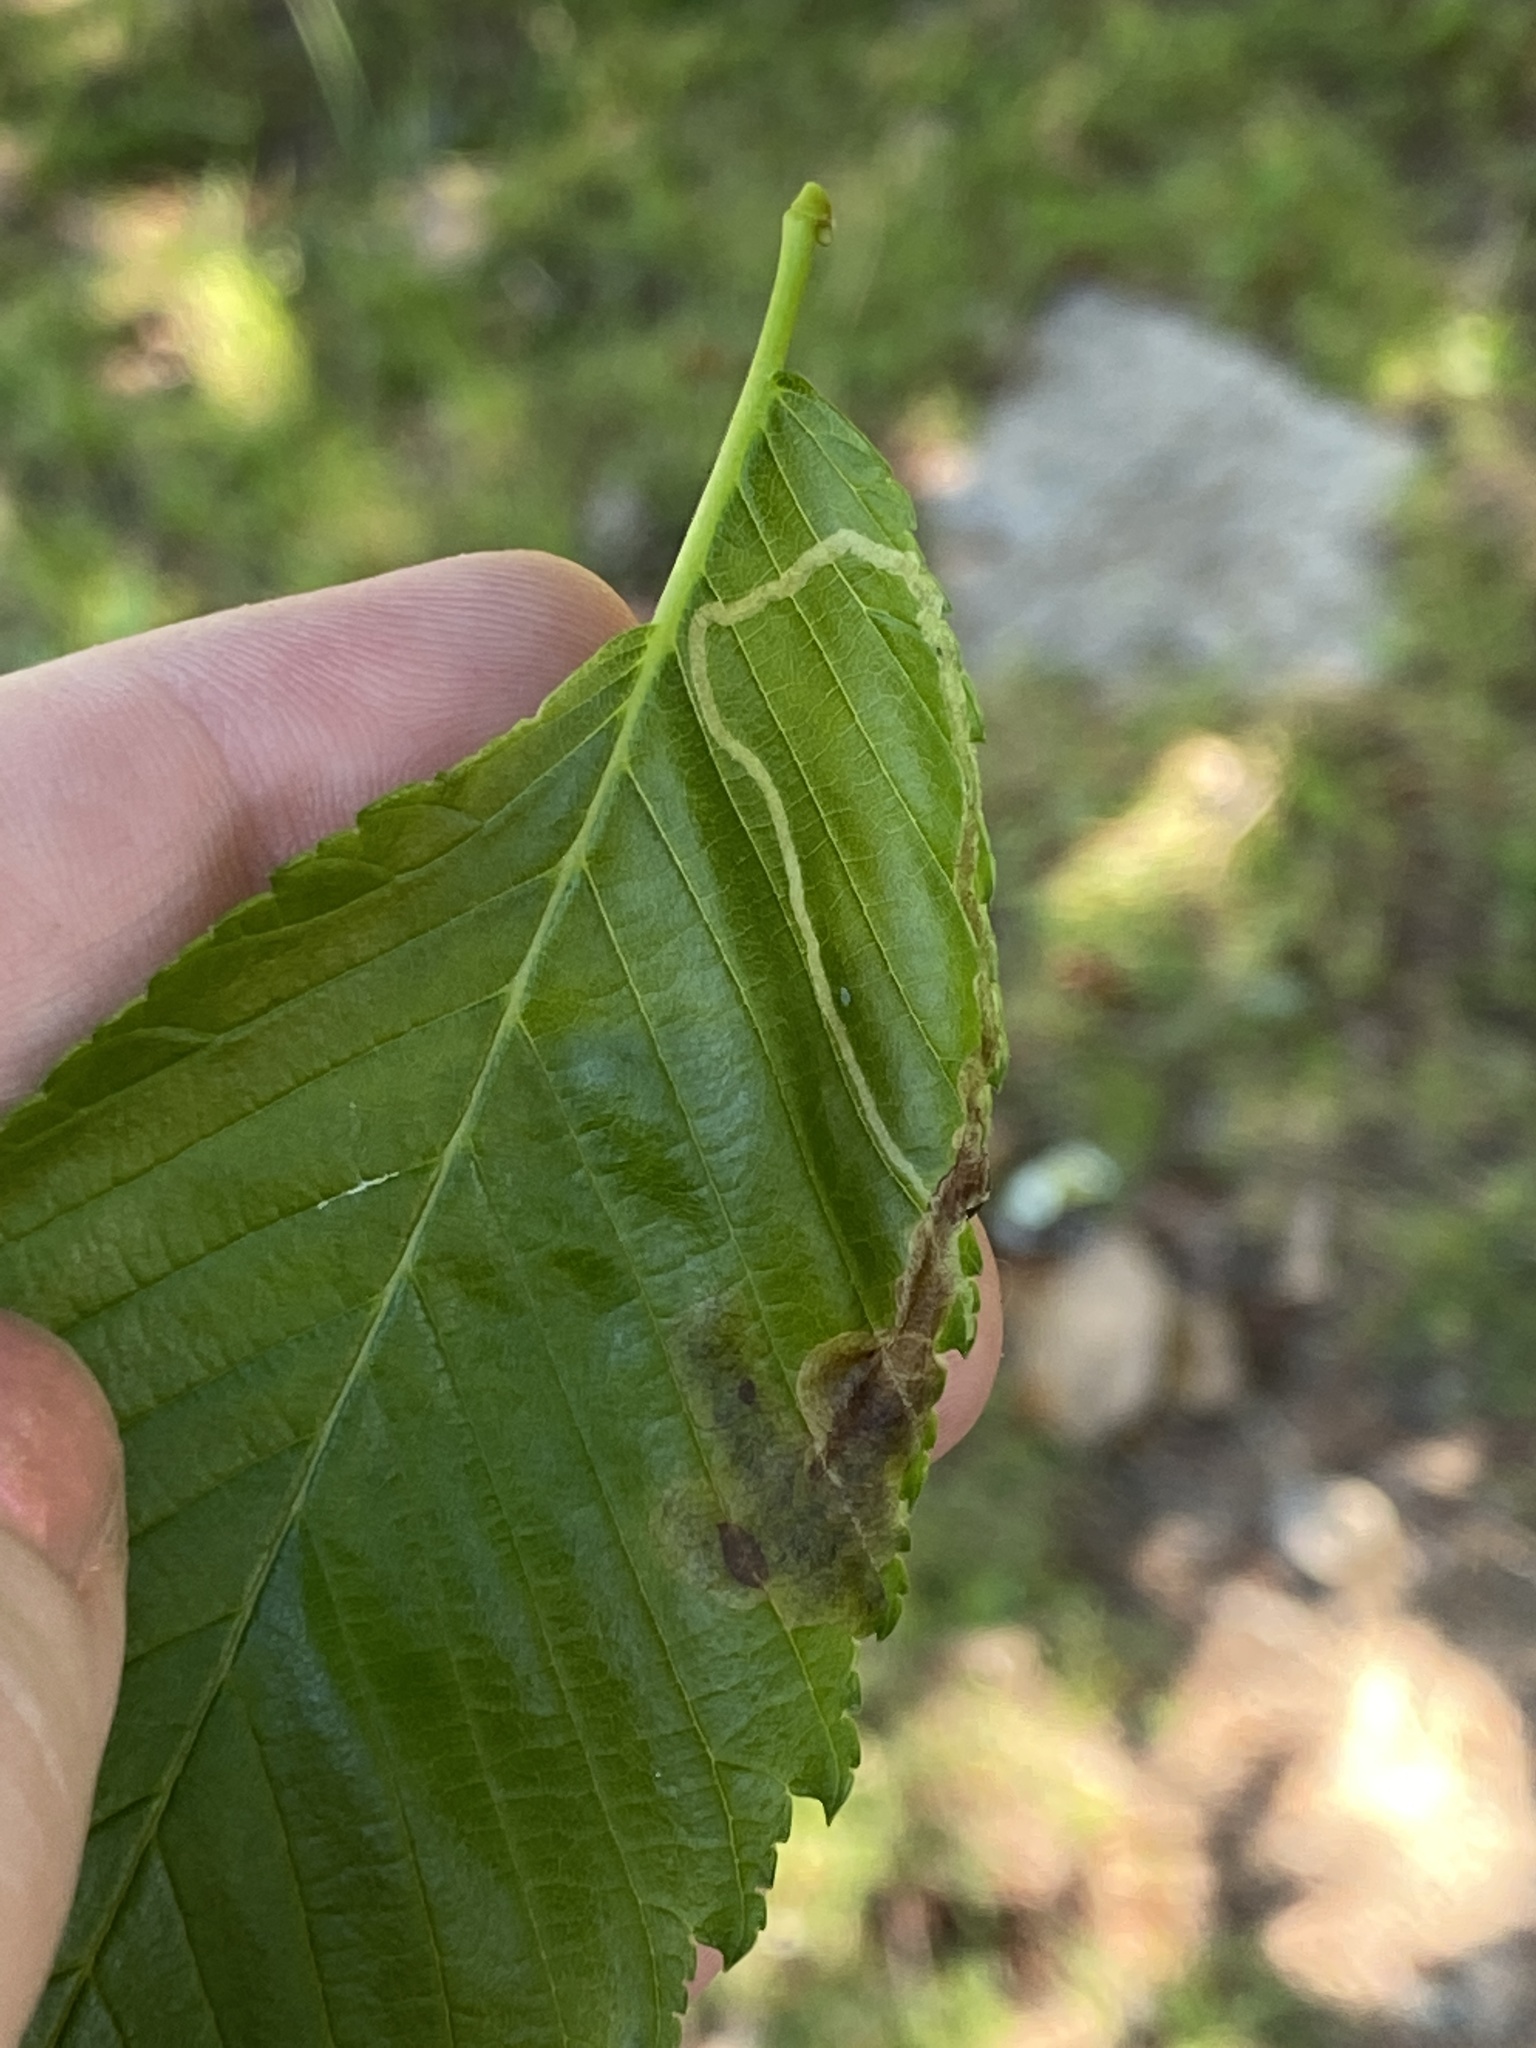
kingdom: Animalia
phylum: Arthropoda
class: Insecta
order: Diptera
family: Agromyzidae
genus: Agromyza
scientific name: Agromyza aristata
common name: Elm agromyzid leafminer
